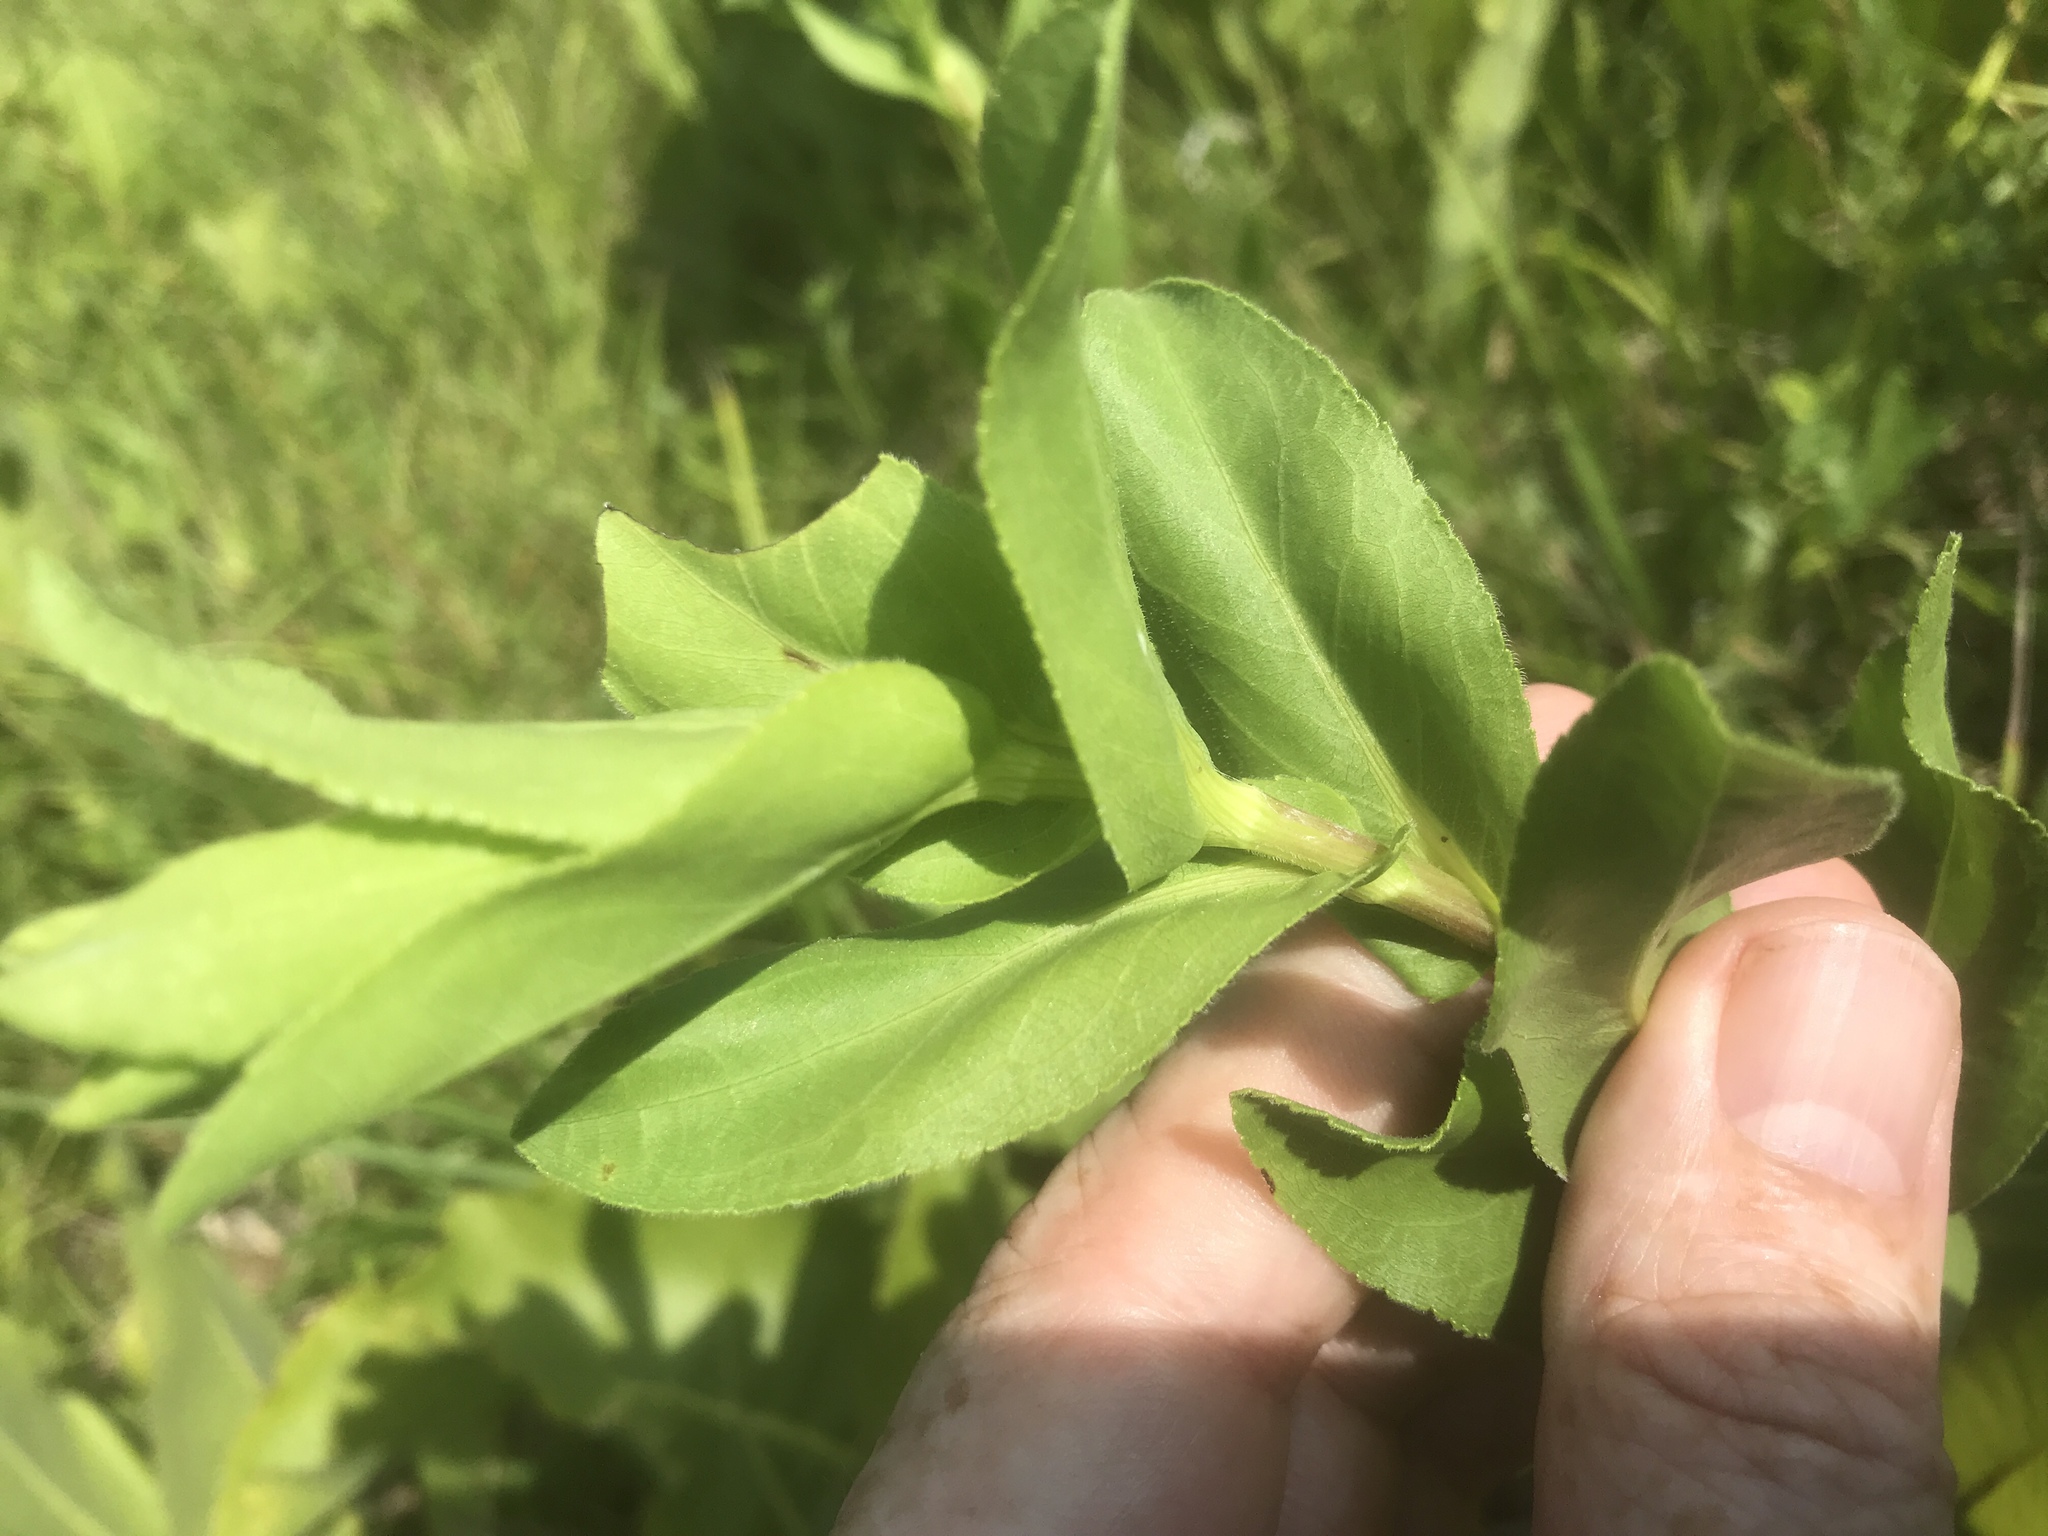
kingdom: Plantae
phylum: Tracheophyta
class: Magnoliopsida
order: Asterales
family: Asteraceae
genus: Solidago
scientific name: Solidago rigida
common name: Rigid goldenrod
